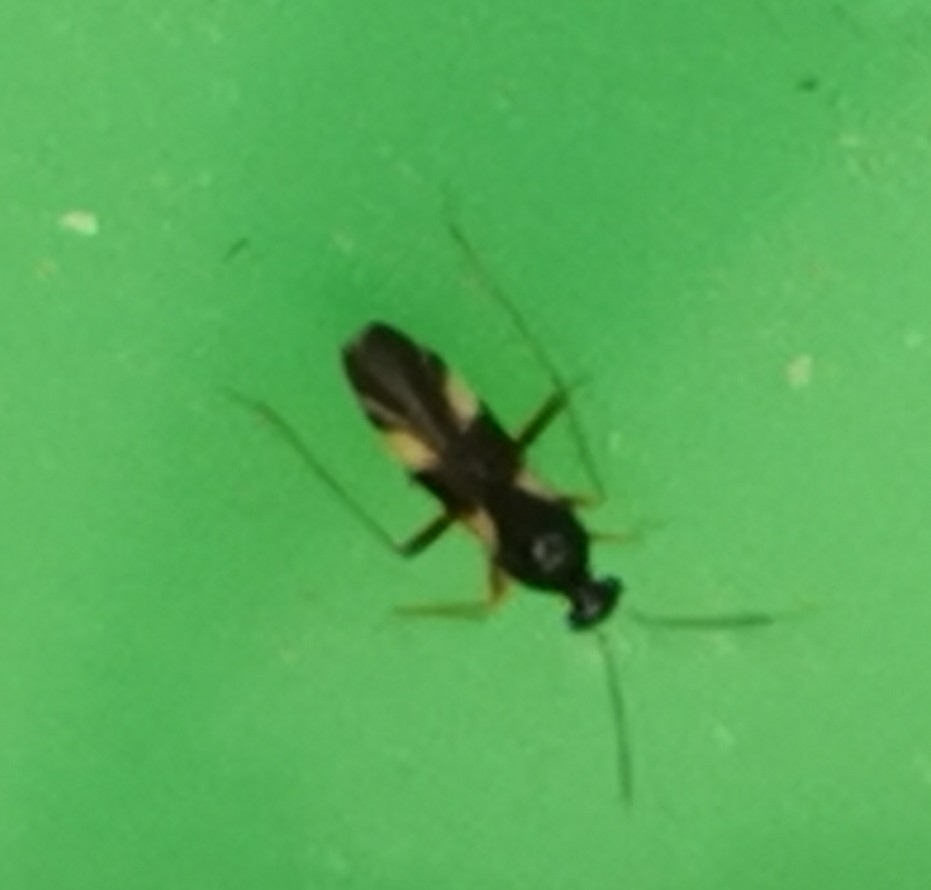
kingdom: Animalia
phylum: Arthropoda
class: Insecta
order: Hemiptera
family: Miridae
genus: Globiceps
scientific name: Globiceps flavomaculatus
